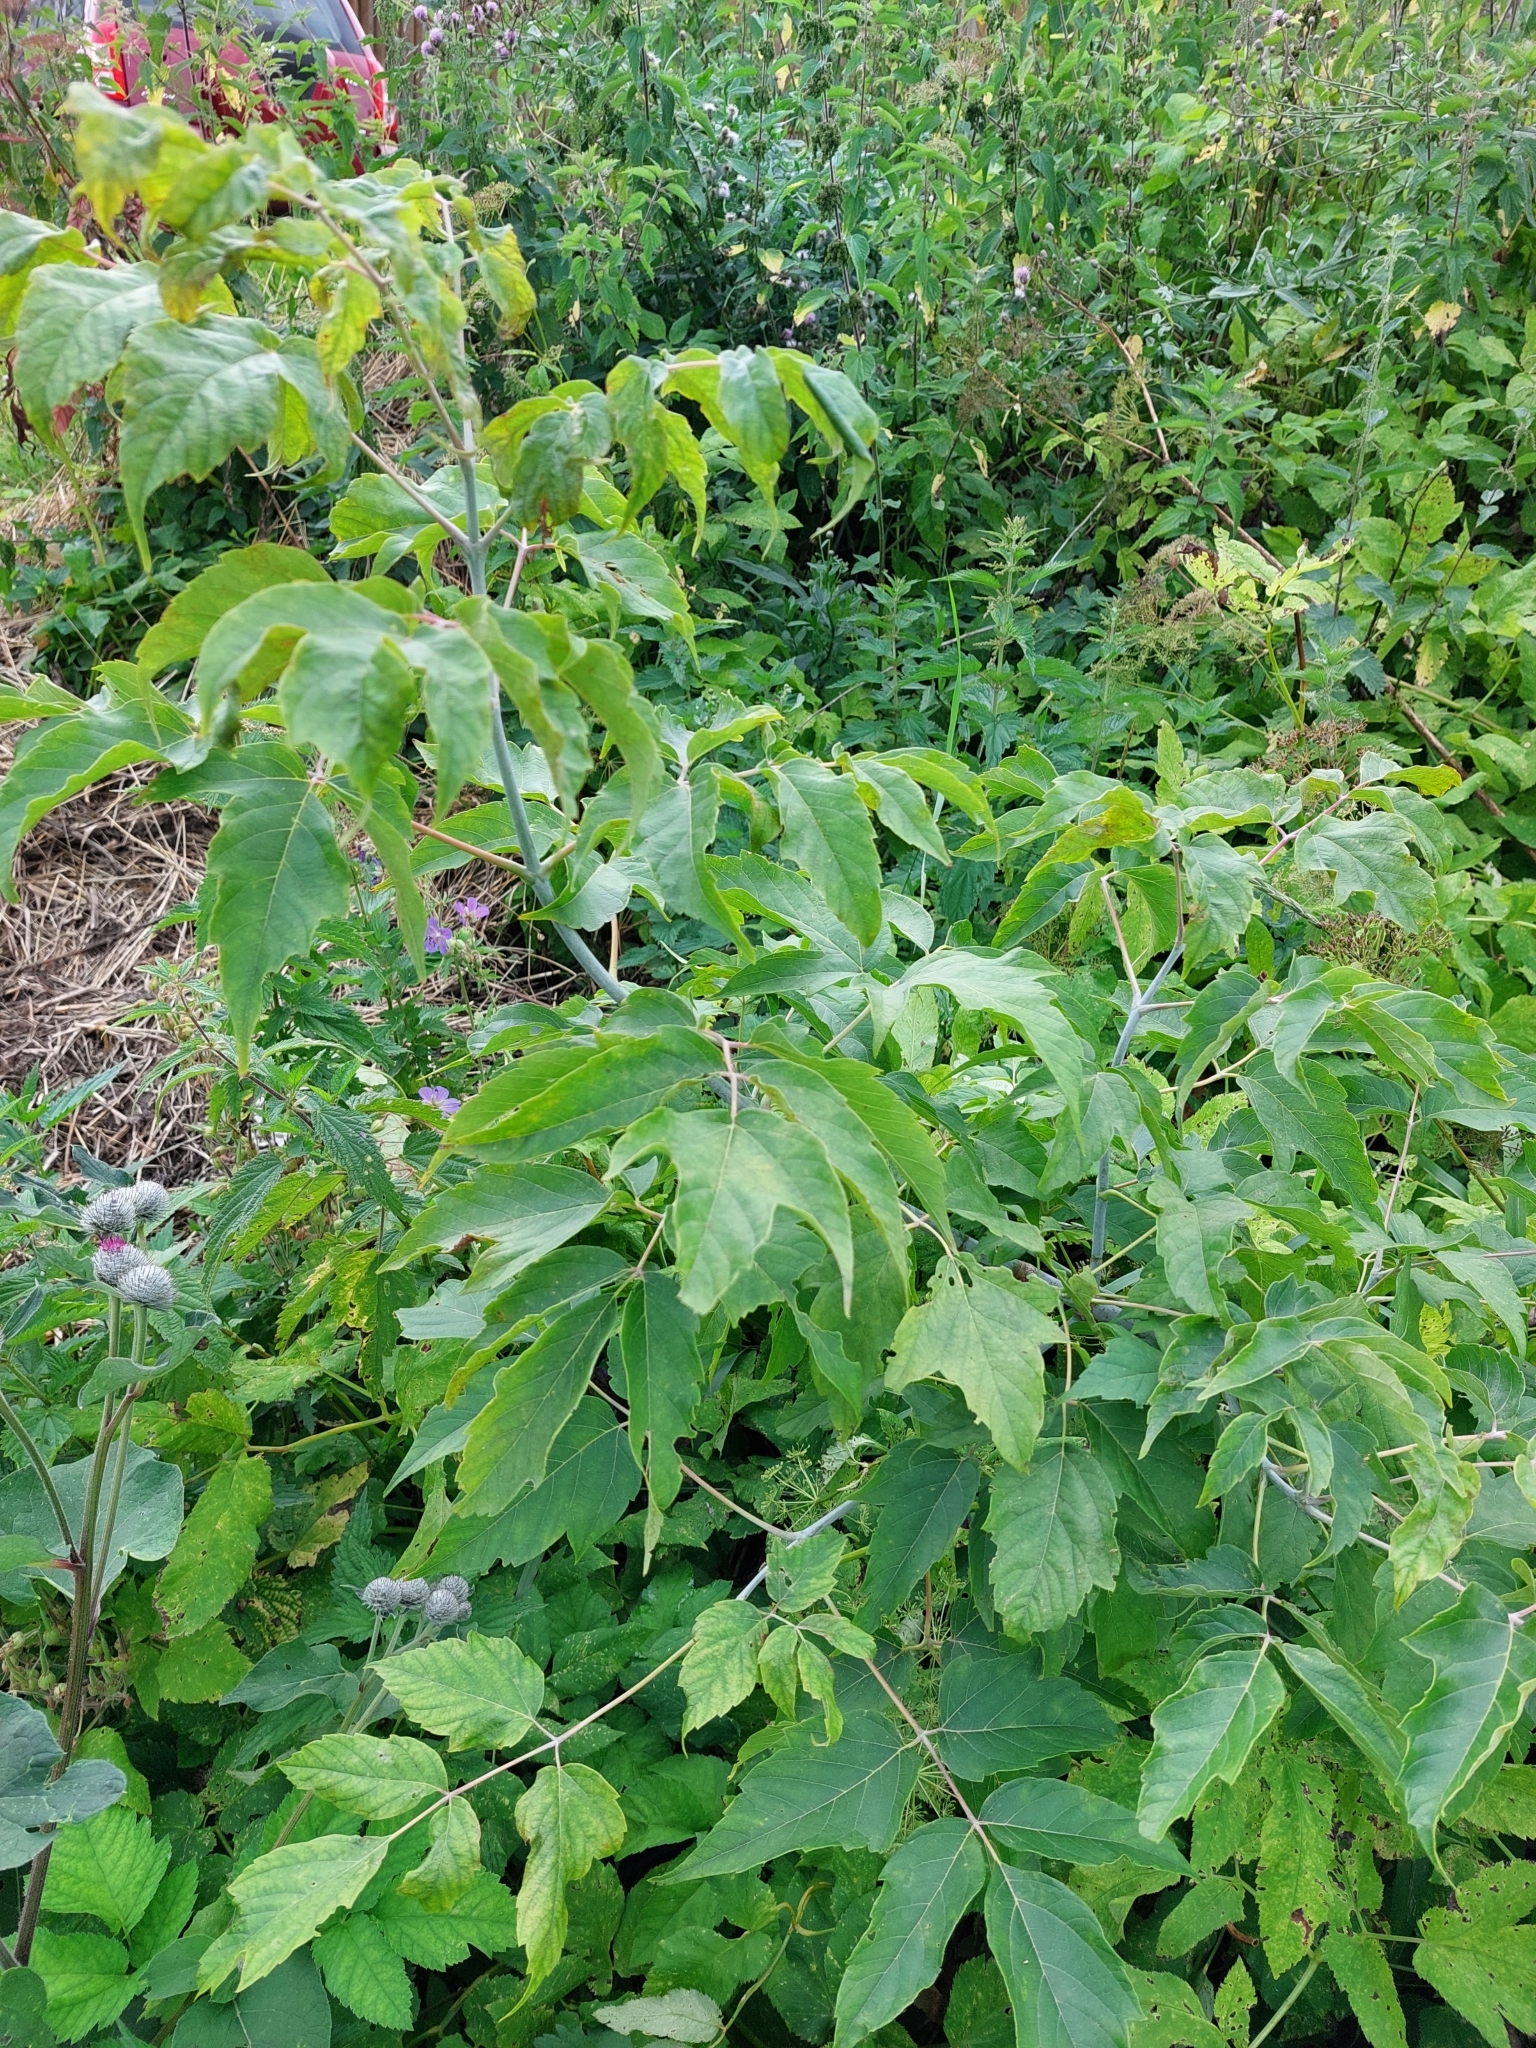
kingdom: Plantae
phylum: Tracheophyta
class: Magnoliopsida
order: Sapindales
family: Sapindaceae
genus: Acer
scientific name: Acer negundo
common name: Ashleaf maple
